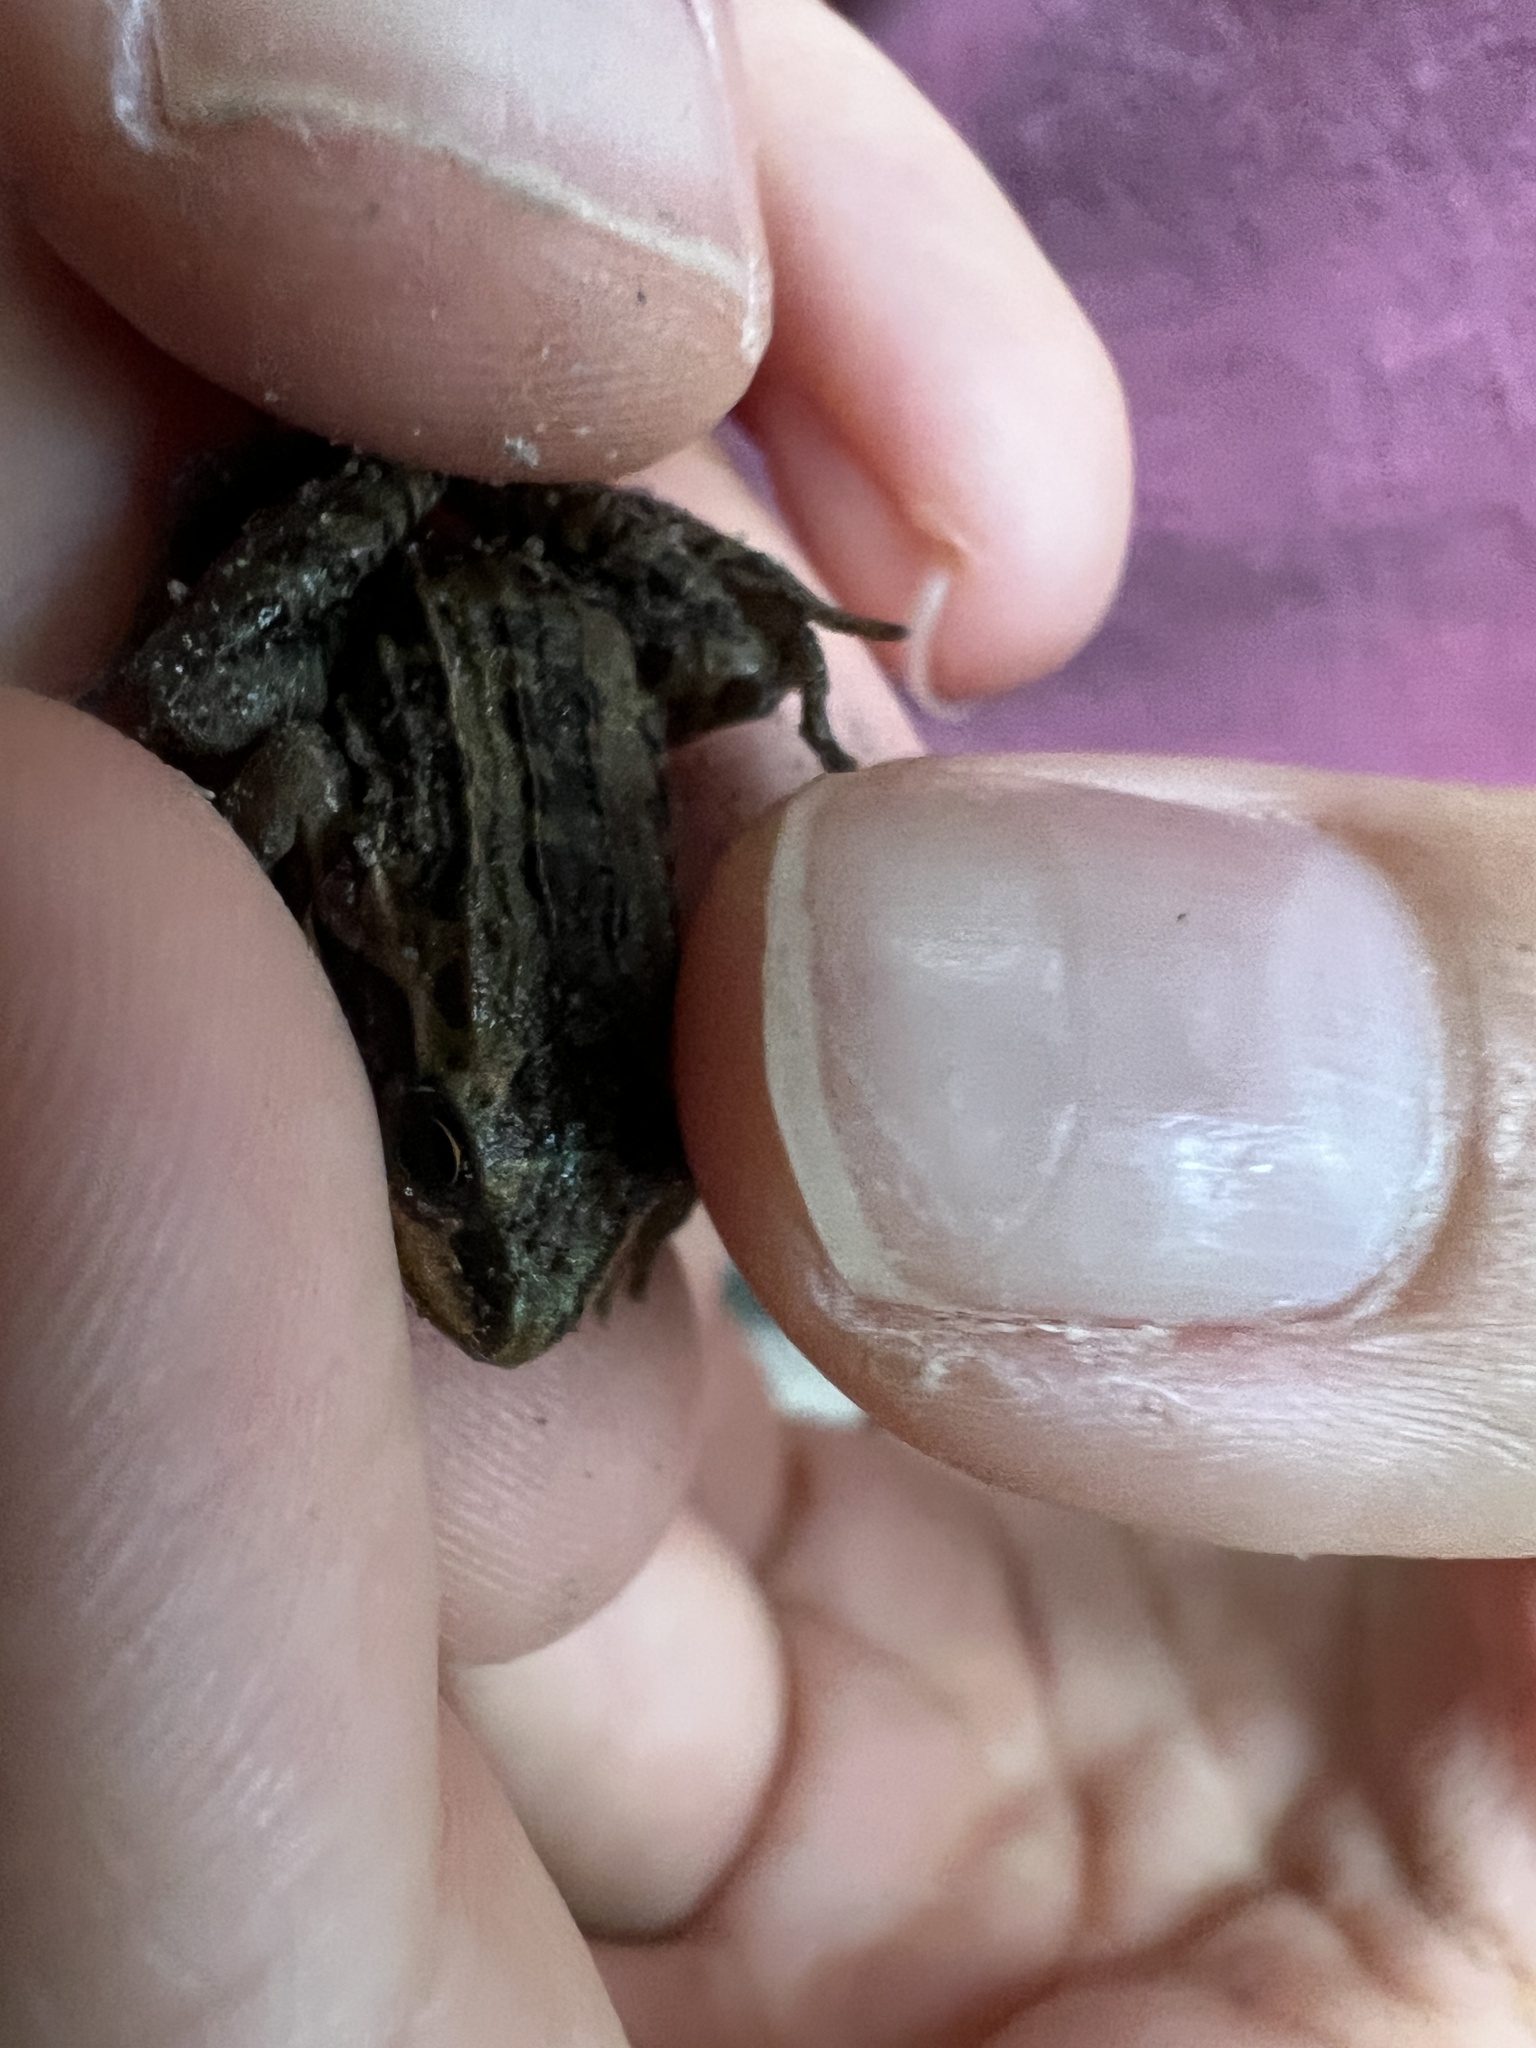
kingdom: Animalia
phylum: Chordata
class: Amphibia
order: Anura
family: Leptodactylidae
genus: Leptodactylus
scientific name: Leptodactylus latrans
